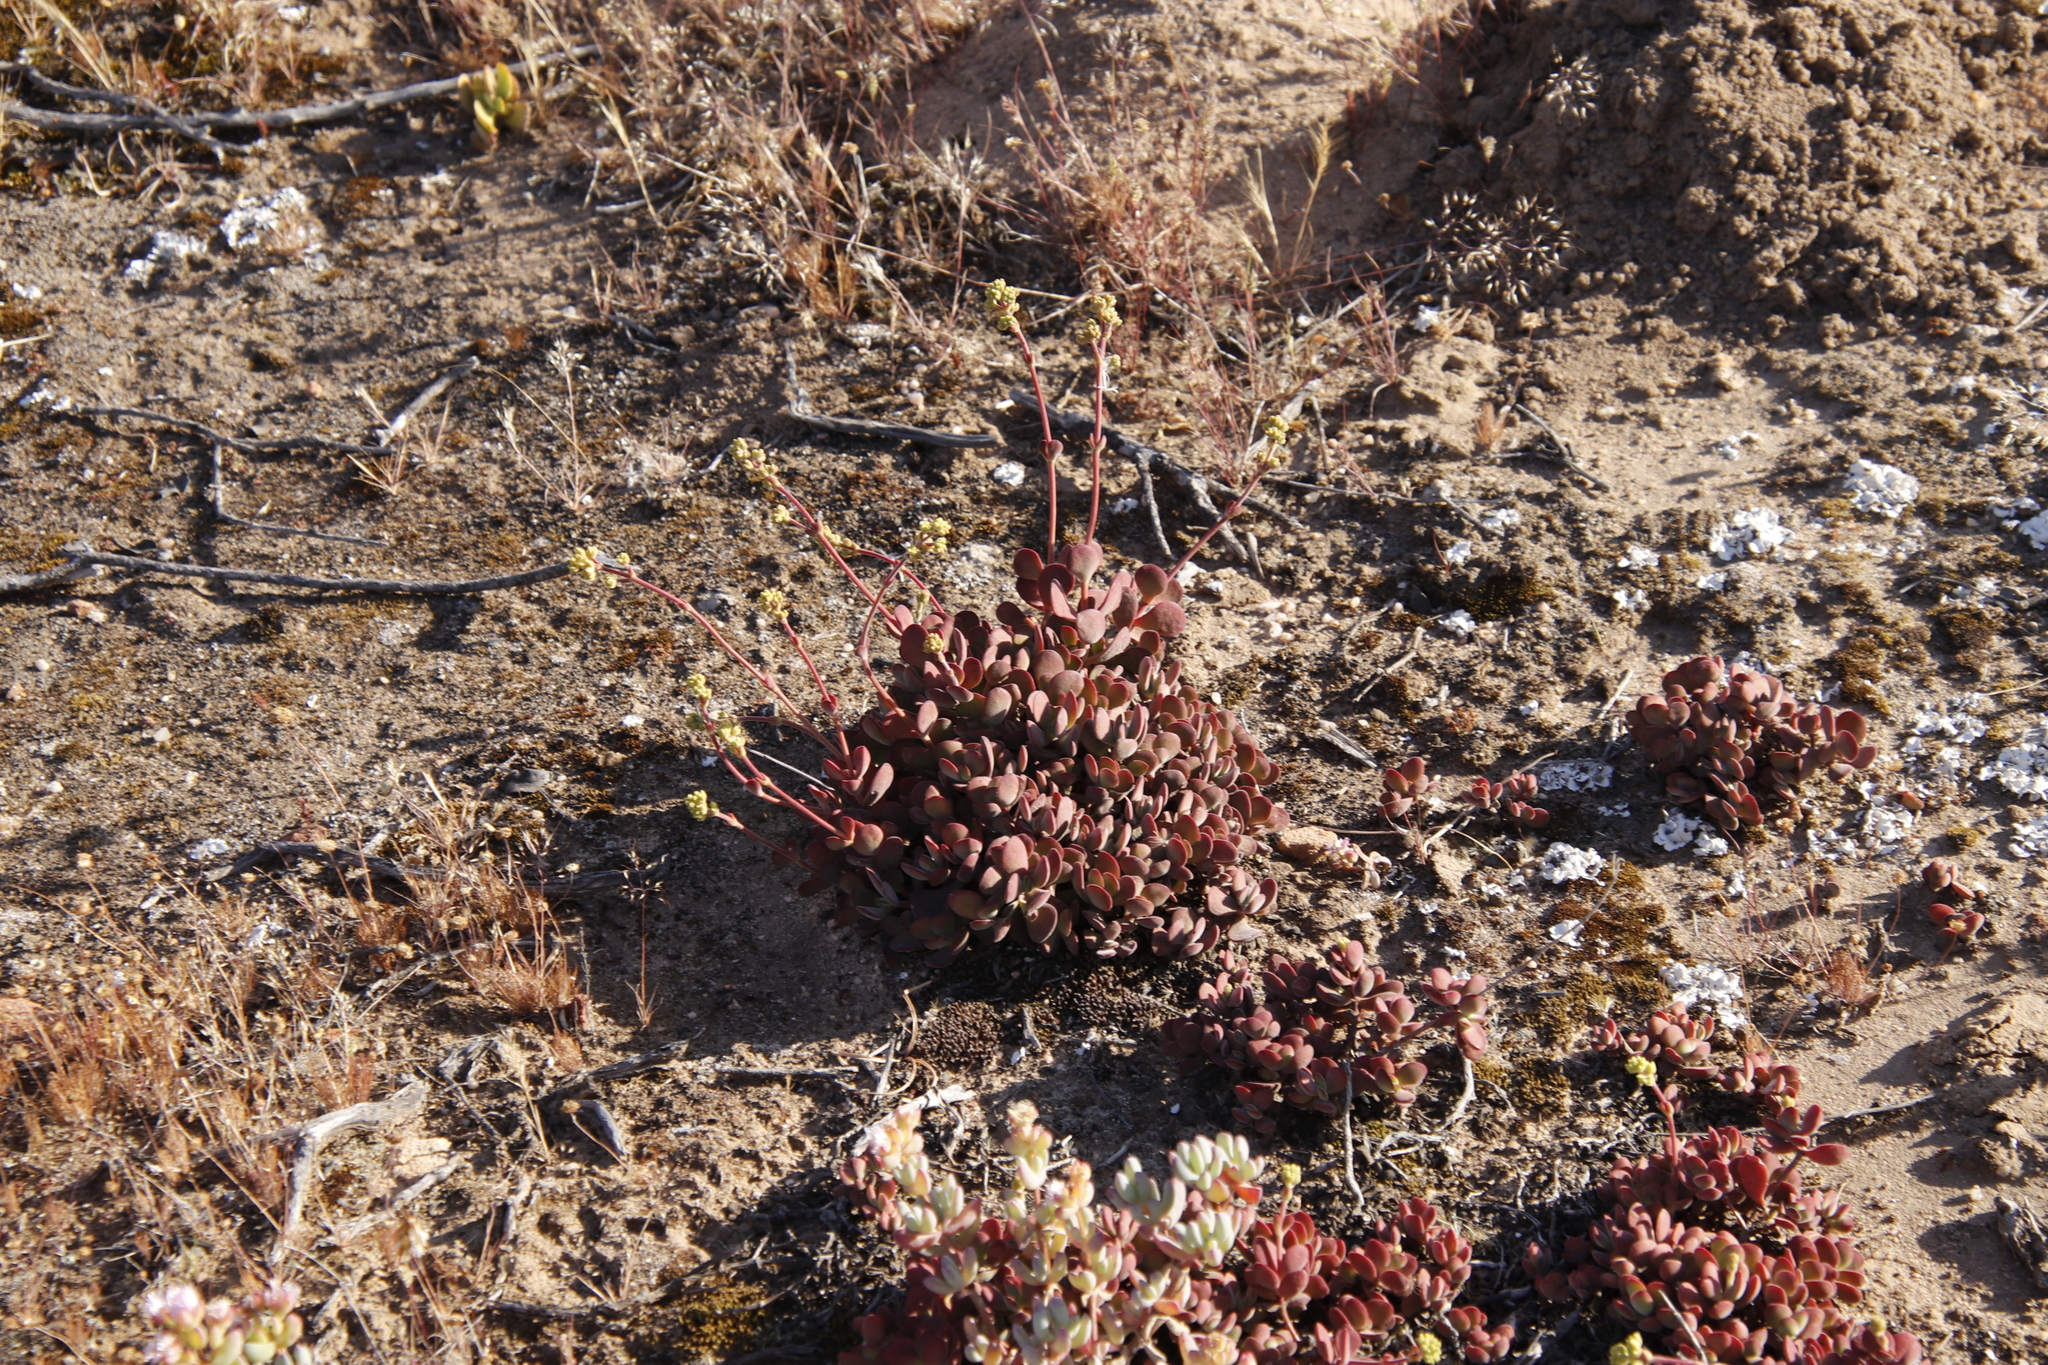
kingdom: Plantae
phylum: Tracheophyta
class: Magnoliopsida
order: Saxifragales
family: Crassulaceae
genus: Crassula
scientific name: Crassula atropurpurea
